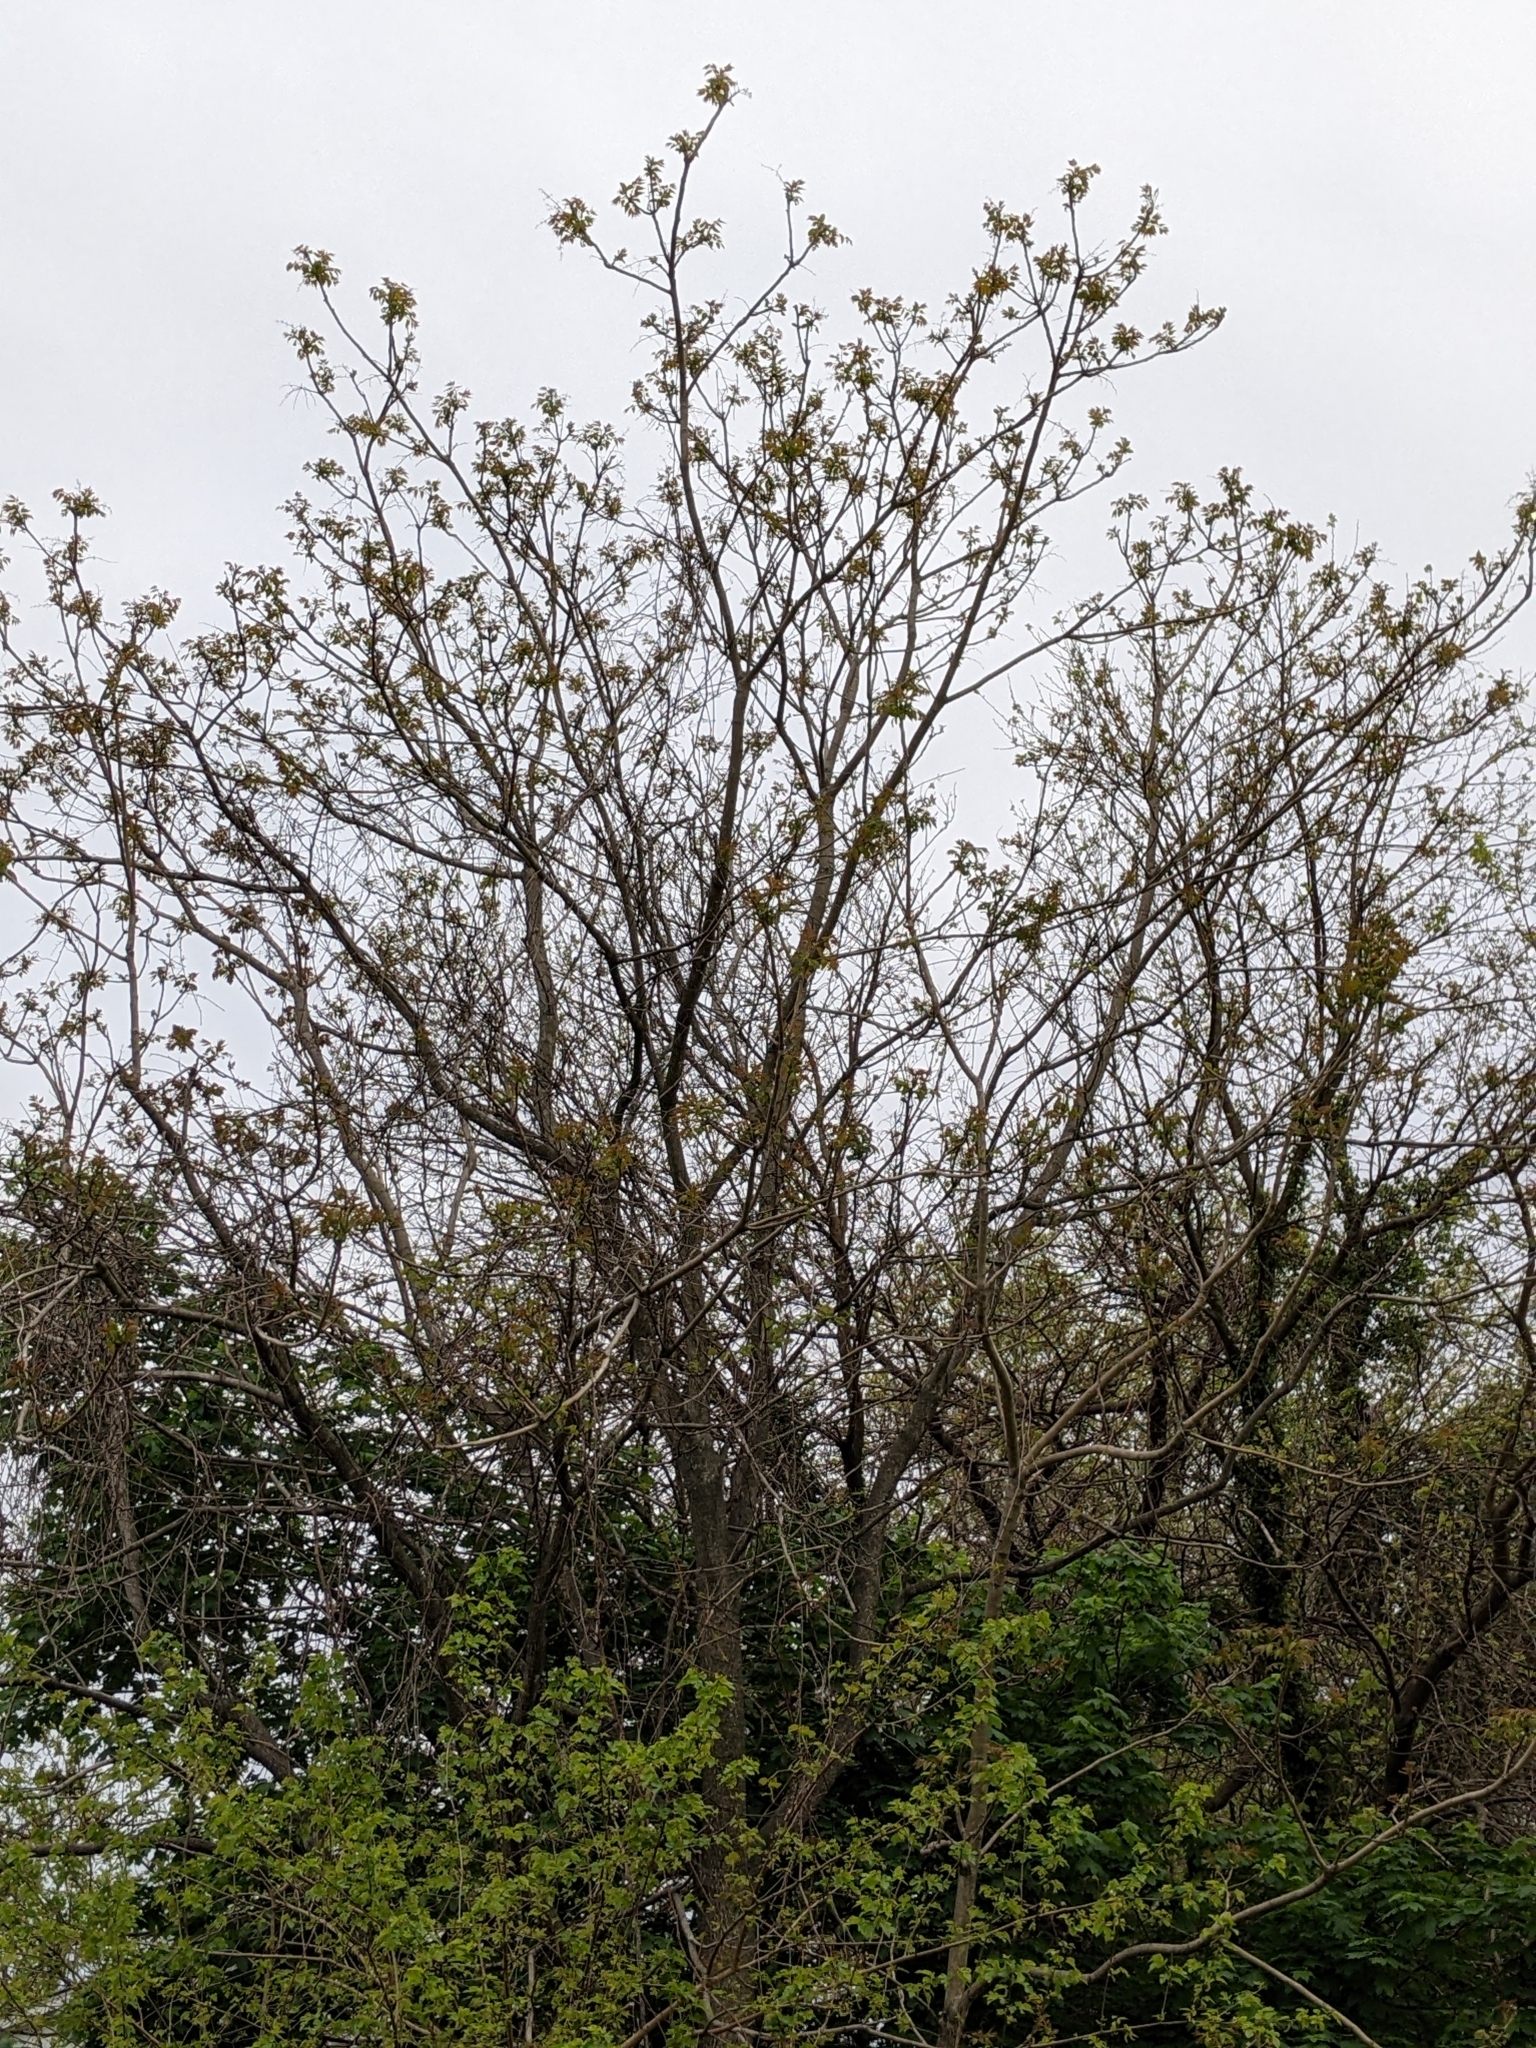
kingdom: Plantae
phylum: Tracheophyta
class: Magnoliopsida
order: Sapindales
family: Simaroubaceae
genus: Ailanthus
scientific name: Ailanthus altissima
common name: Tree-of-heaven
